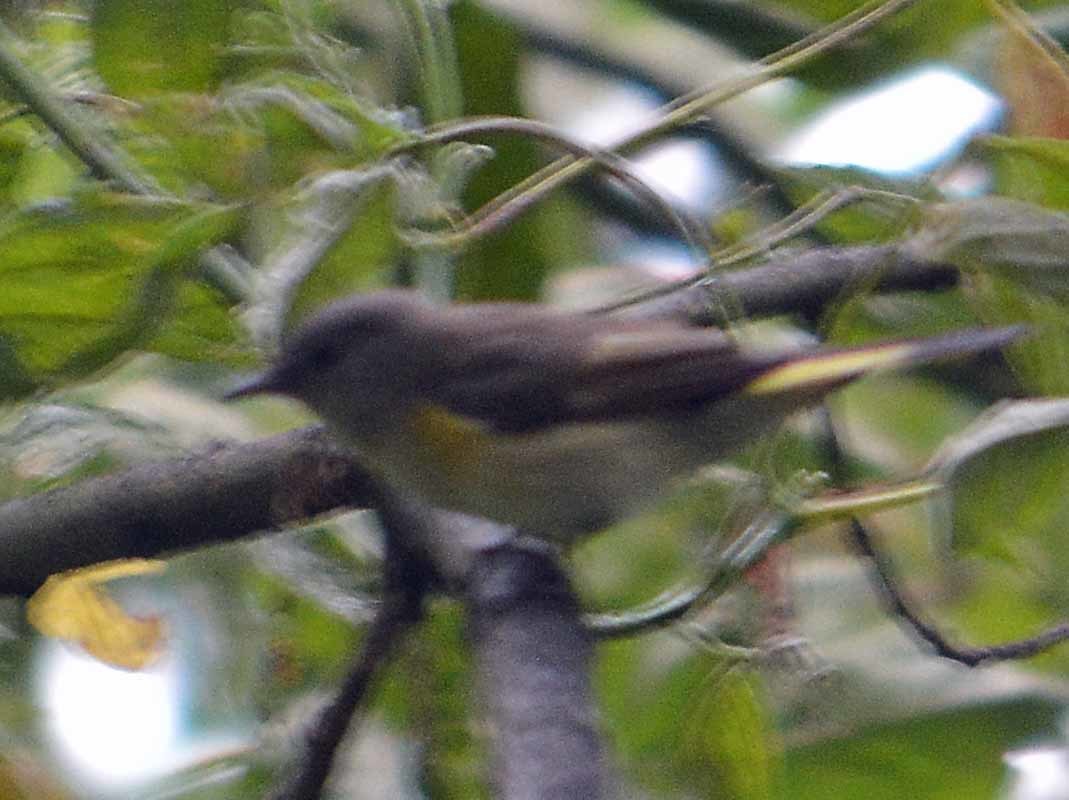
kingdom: Animalia
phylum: Chordata
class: Aves
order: Passeriformes
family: Parulidae
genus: Setophaga
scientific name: Setophaga ruticilla
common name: American redstart
